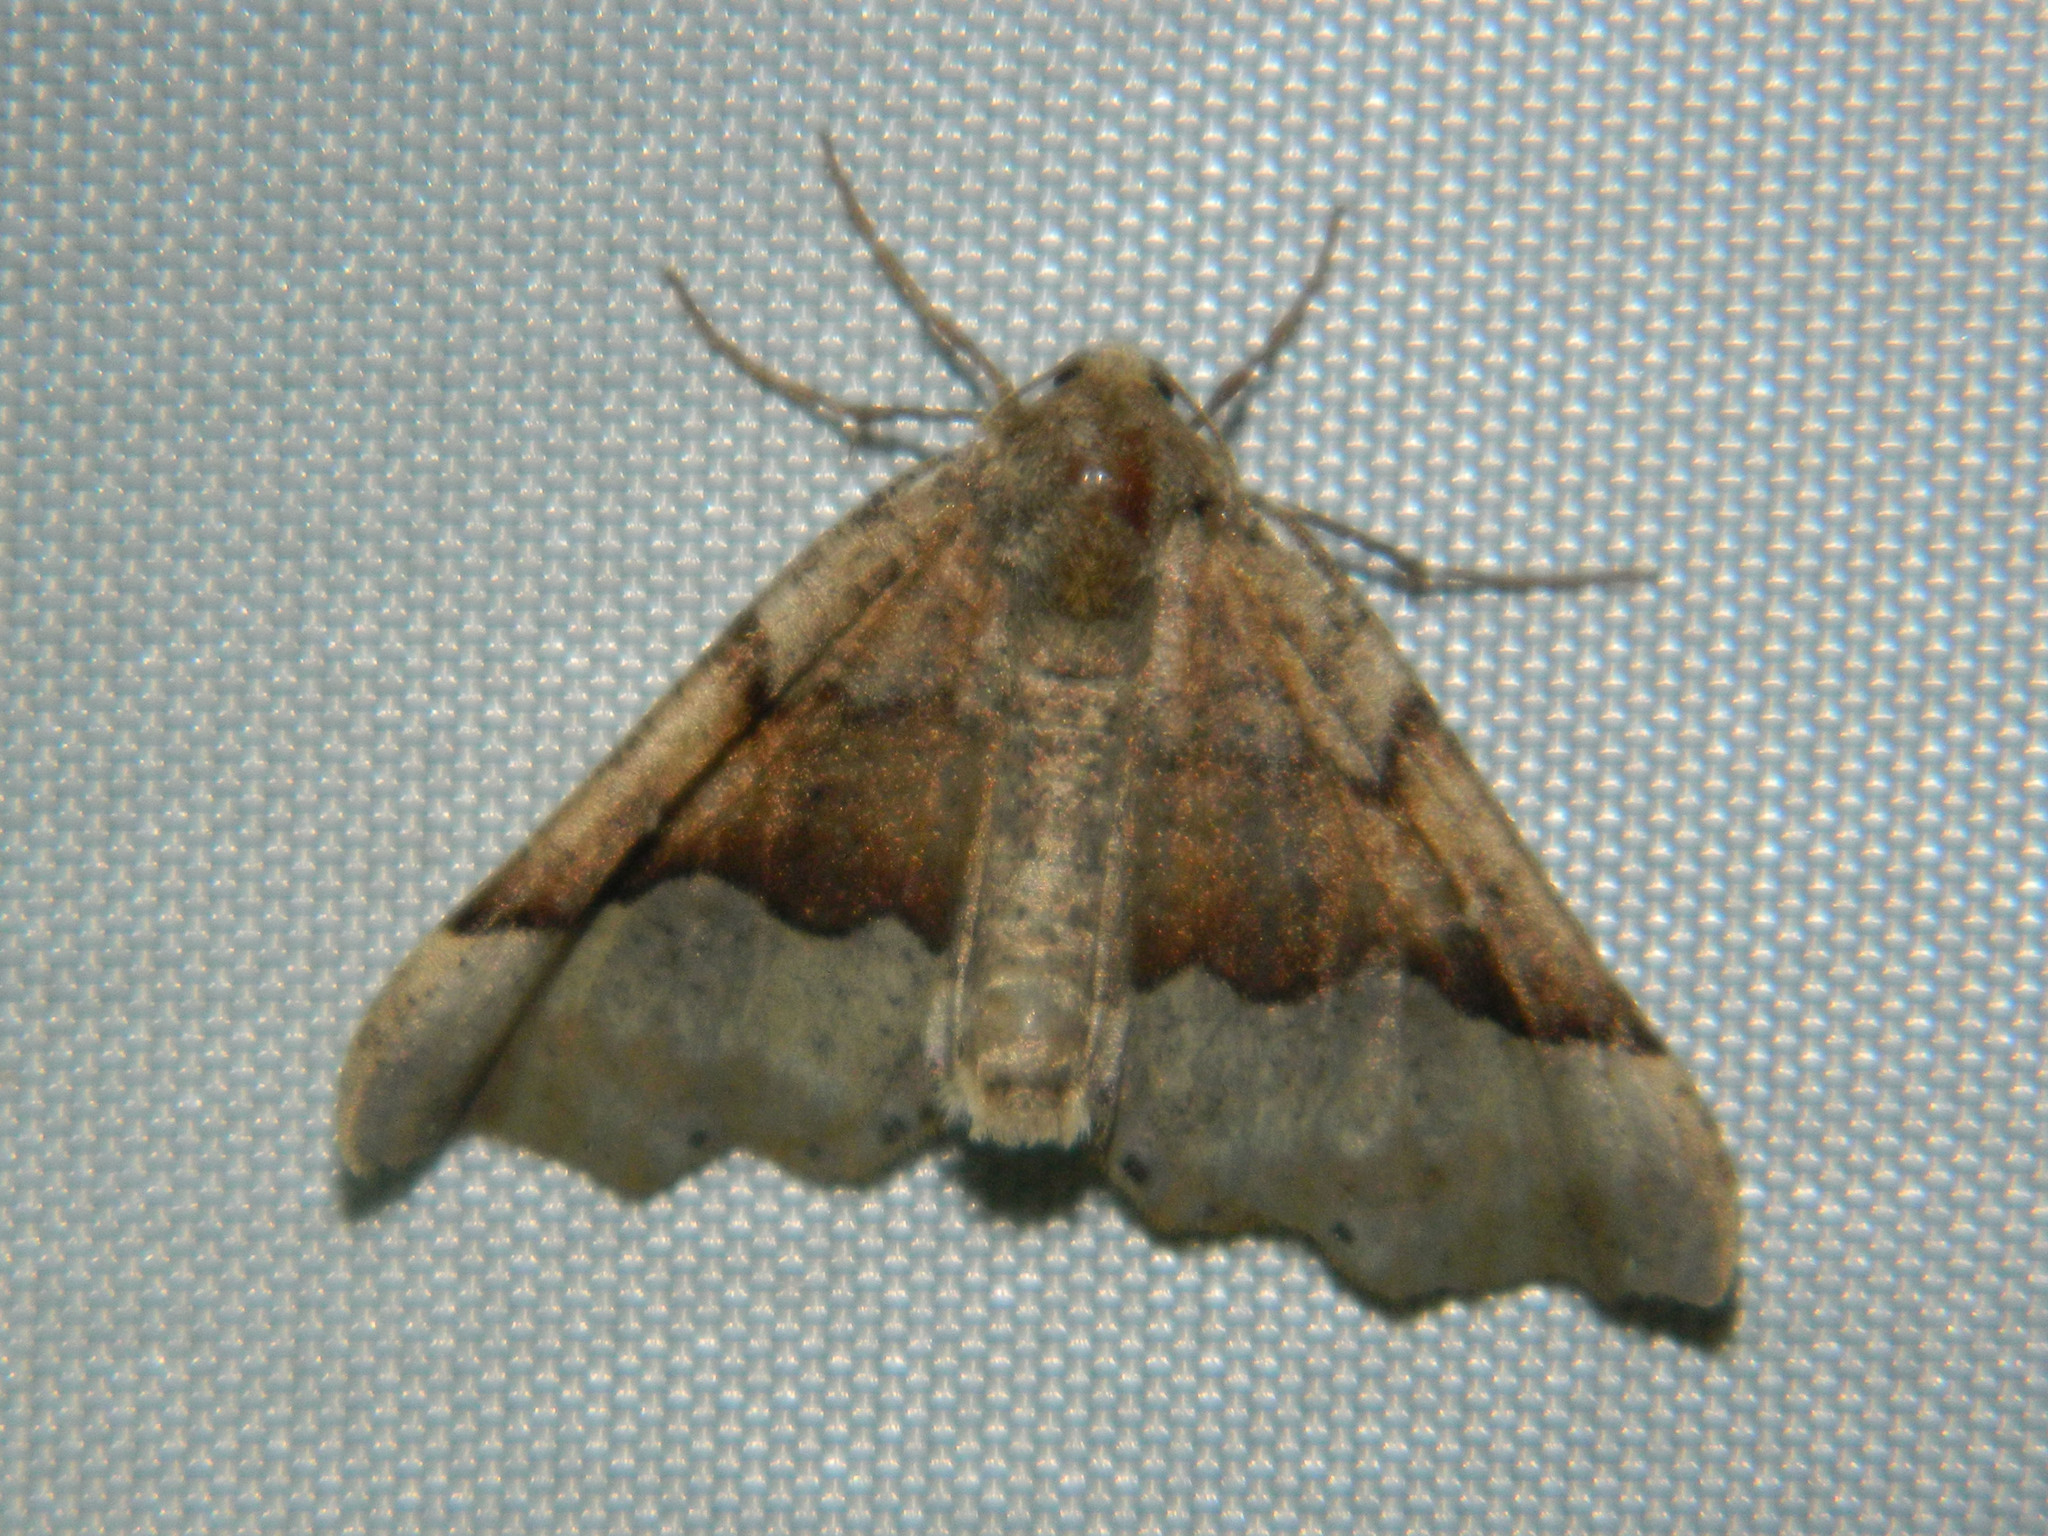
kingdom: Animalia
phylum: Arthropoda
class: Insecta
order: Lepidoptera
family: Geometridae
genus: Pero
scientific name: Pero morrisonaria
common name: Morrison's pero
